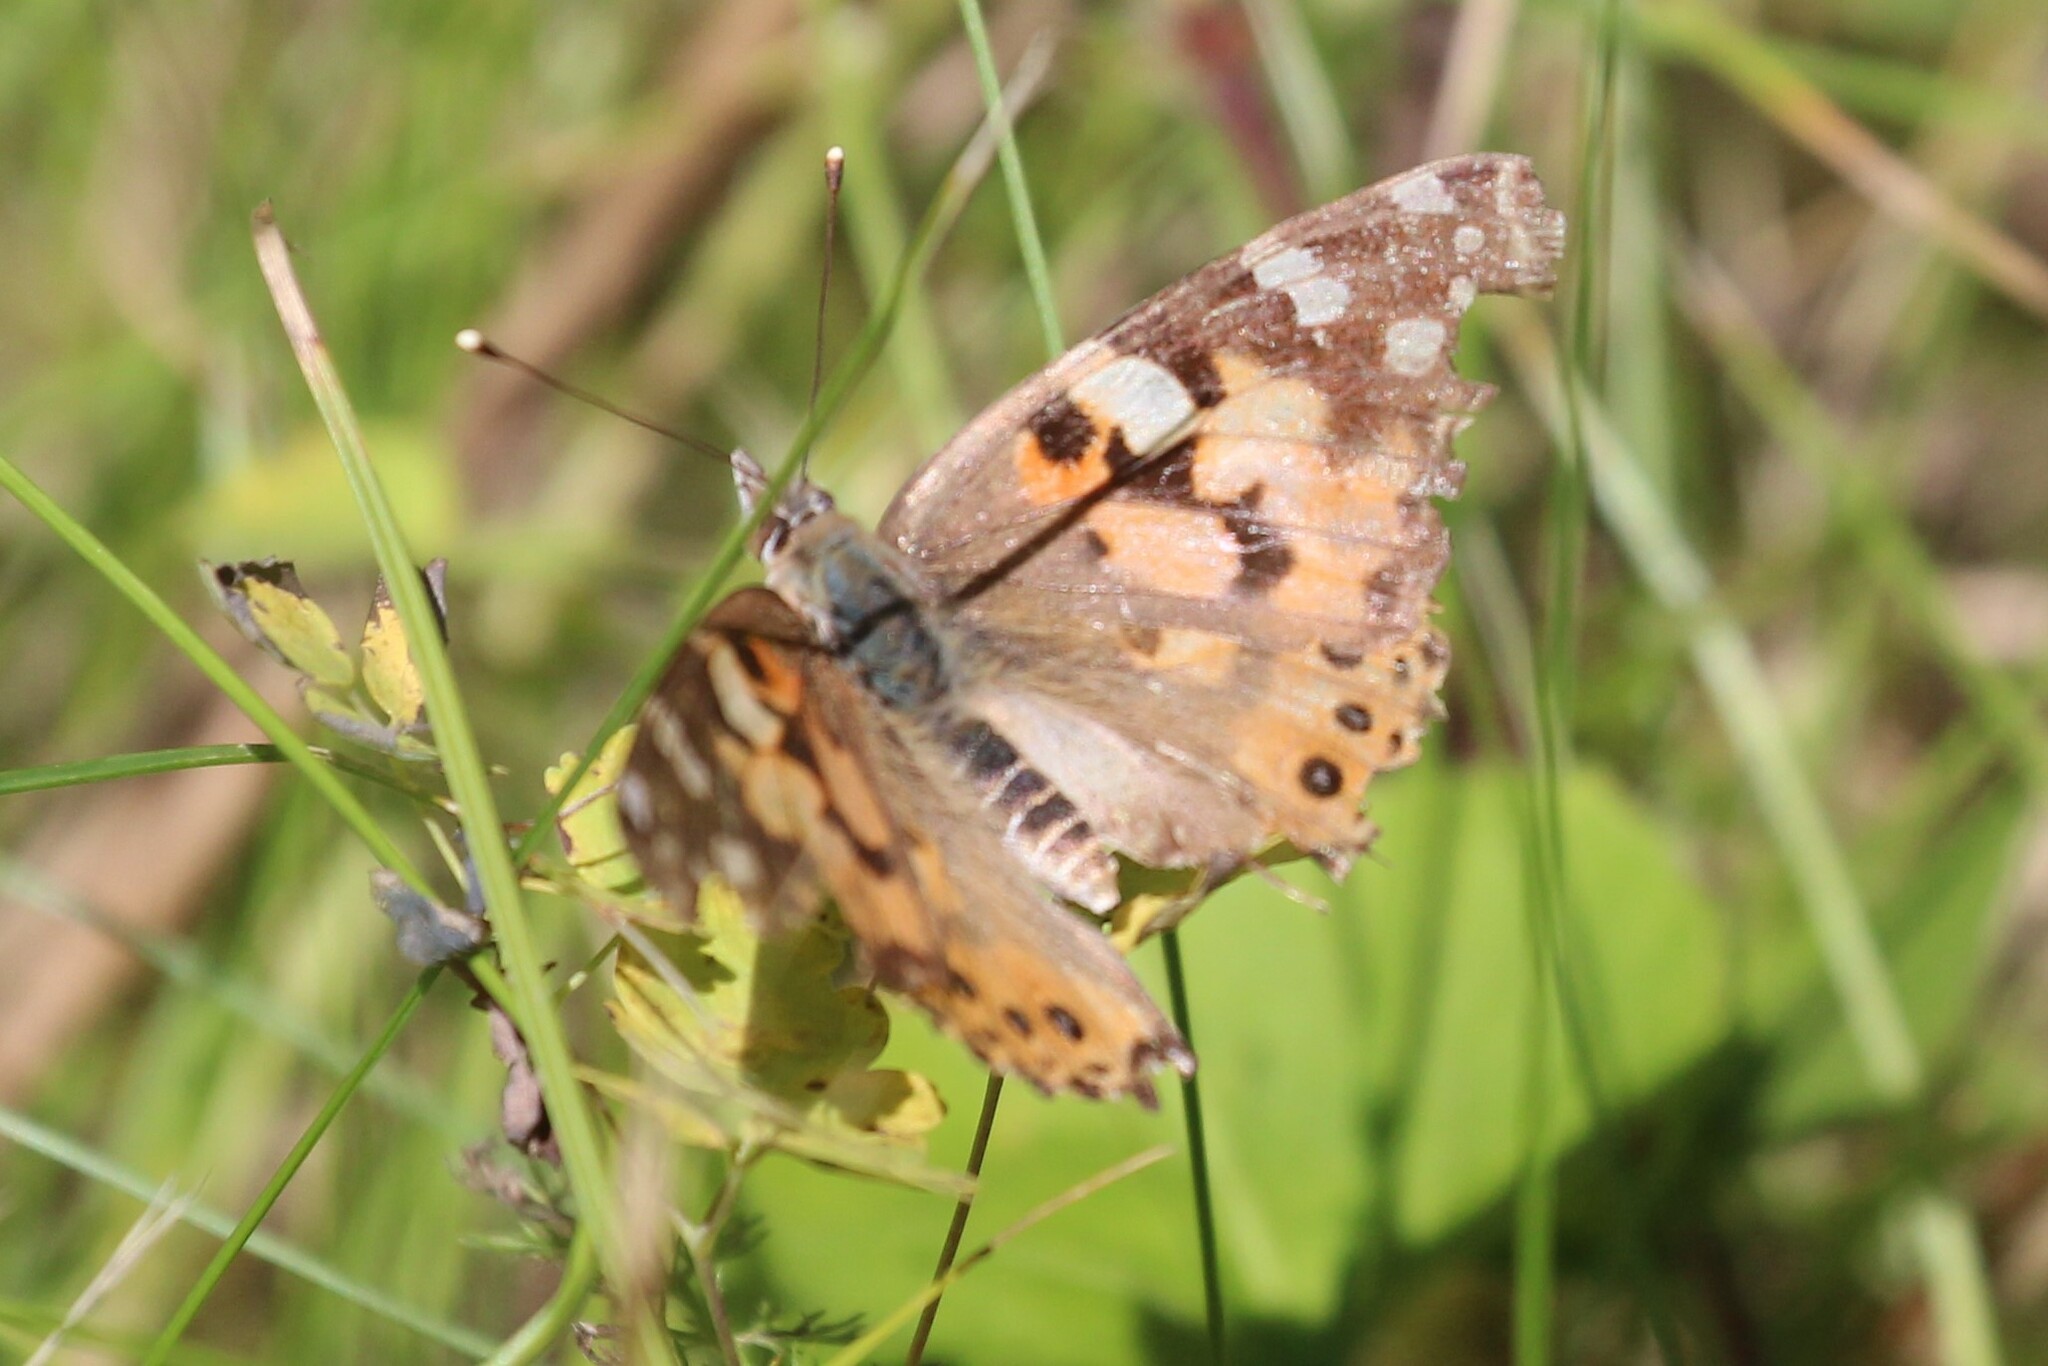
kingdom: Animalia
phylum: Arthropoda
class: Insecta
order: Lepidoptera
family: Nymphalidae
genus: Vanessa
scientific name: Vanessa cardui
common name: Painted lady
